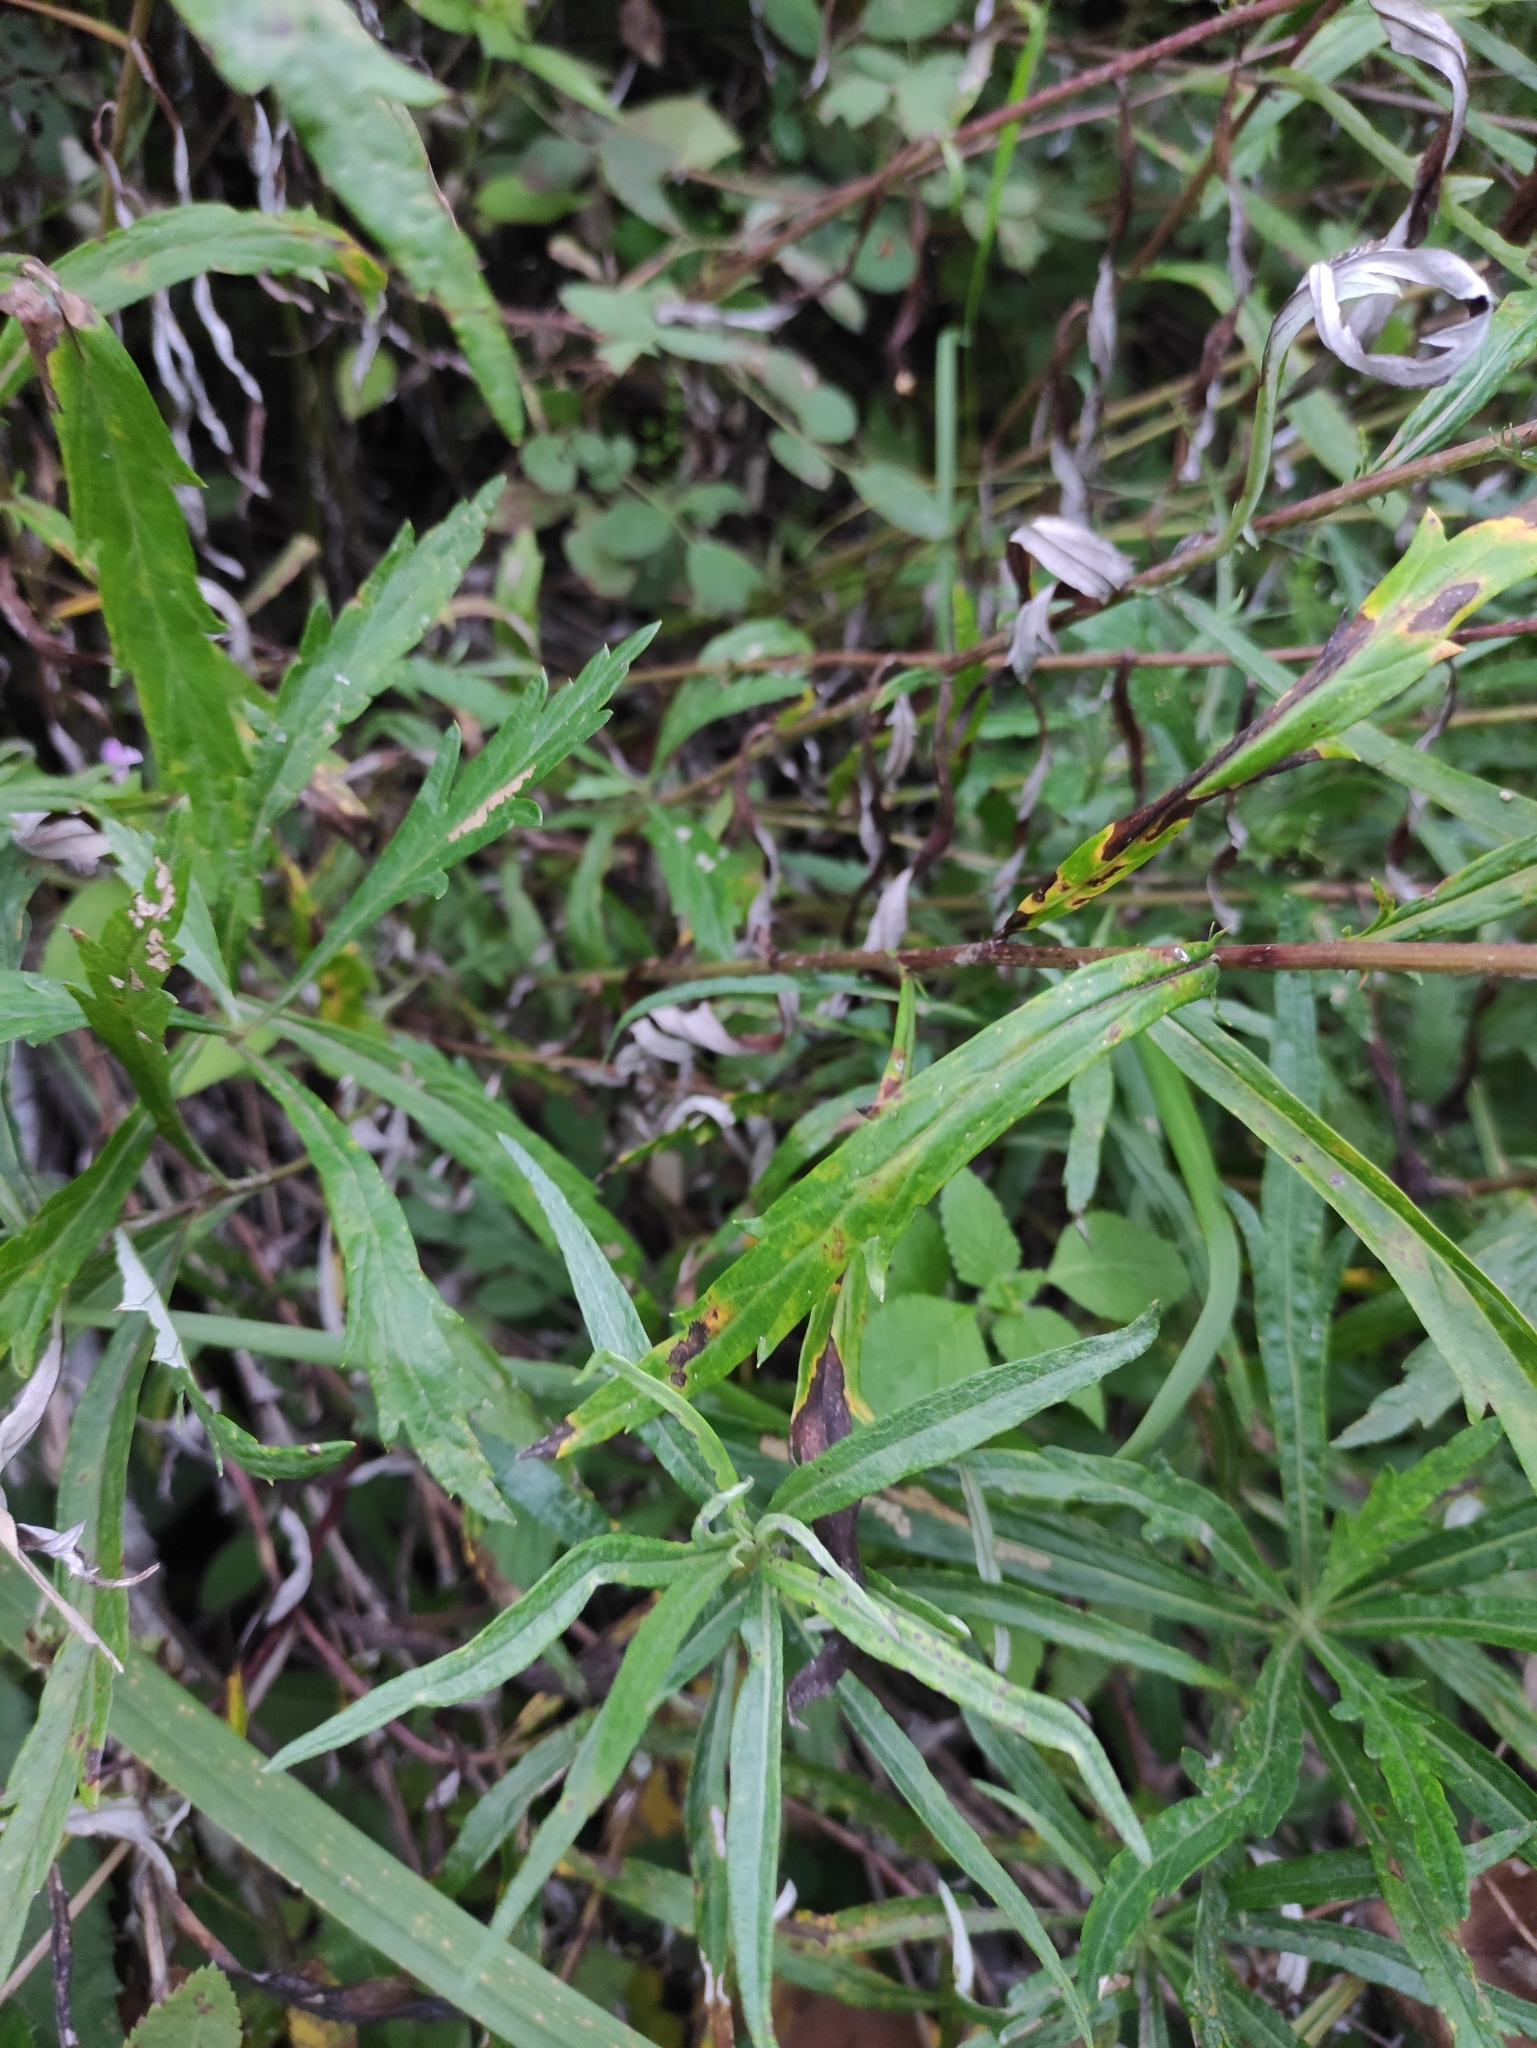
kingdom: Plantae
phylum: Tracheophyta
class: Magnoliopsida
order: Asterales
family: Asteraceae
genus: Artemisia
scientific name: Artemisia integrifolia
